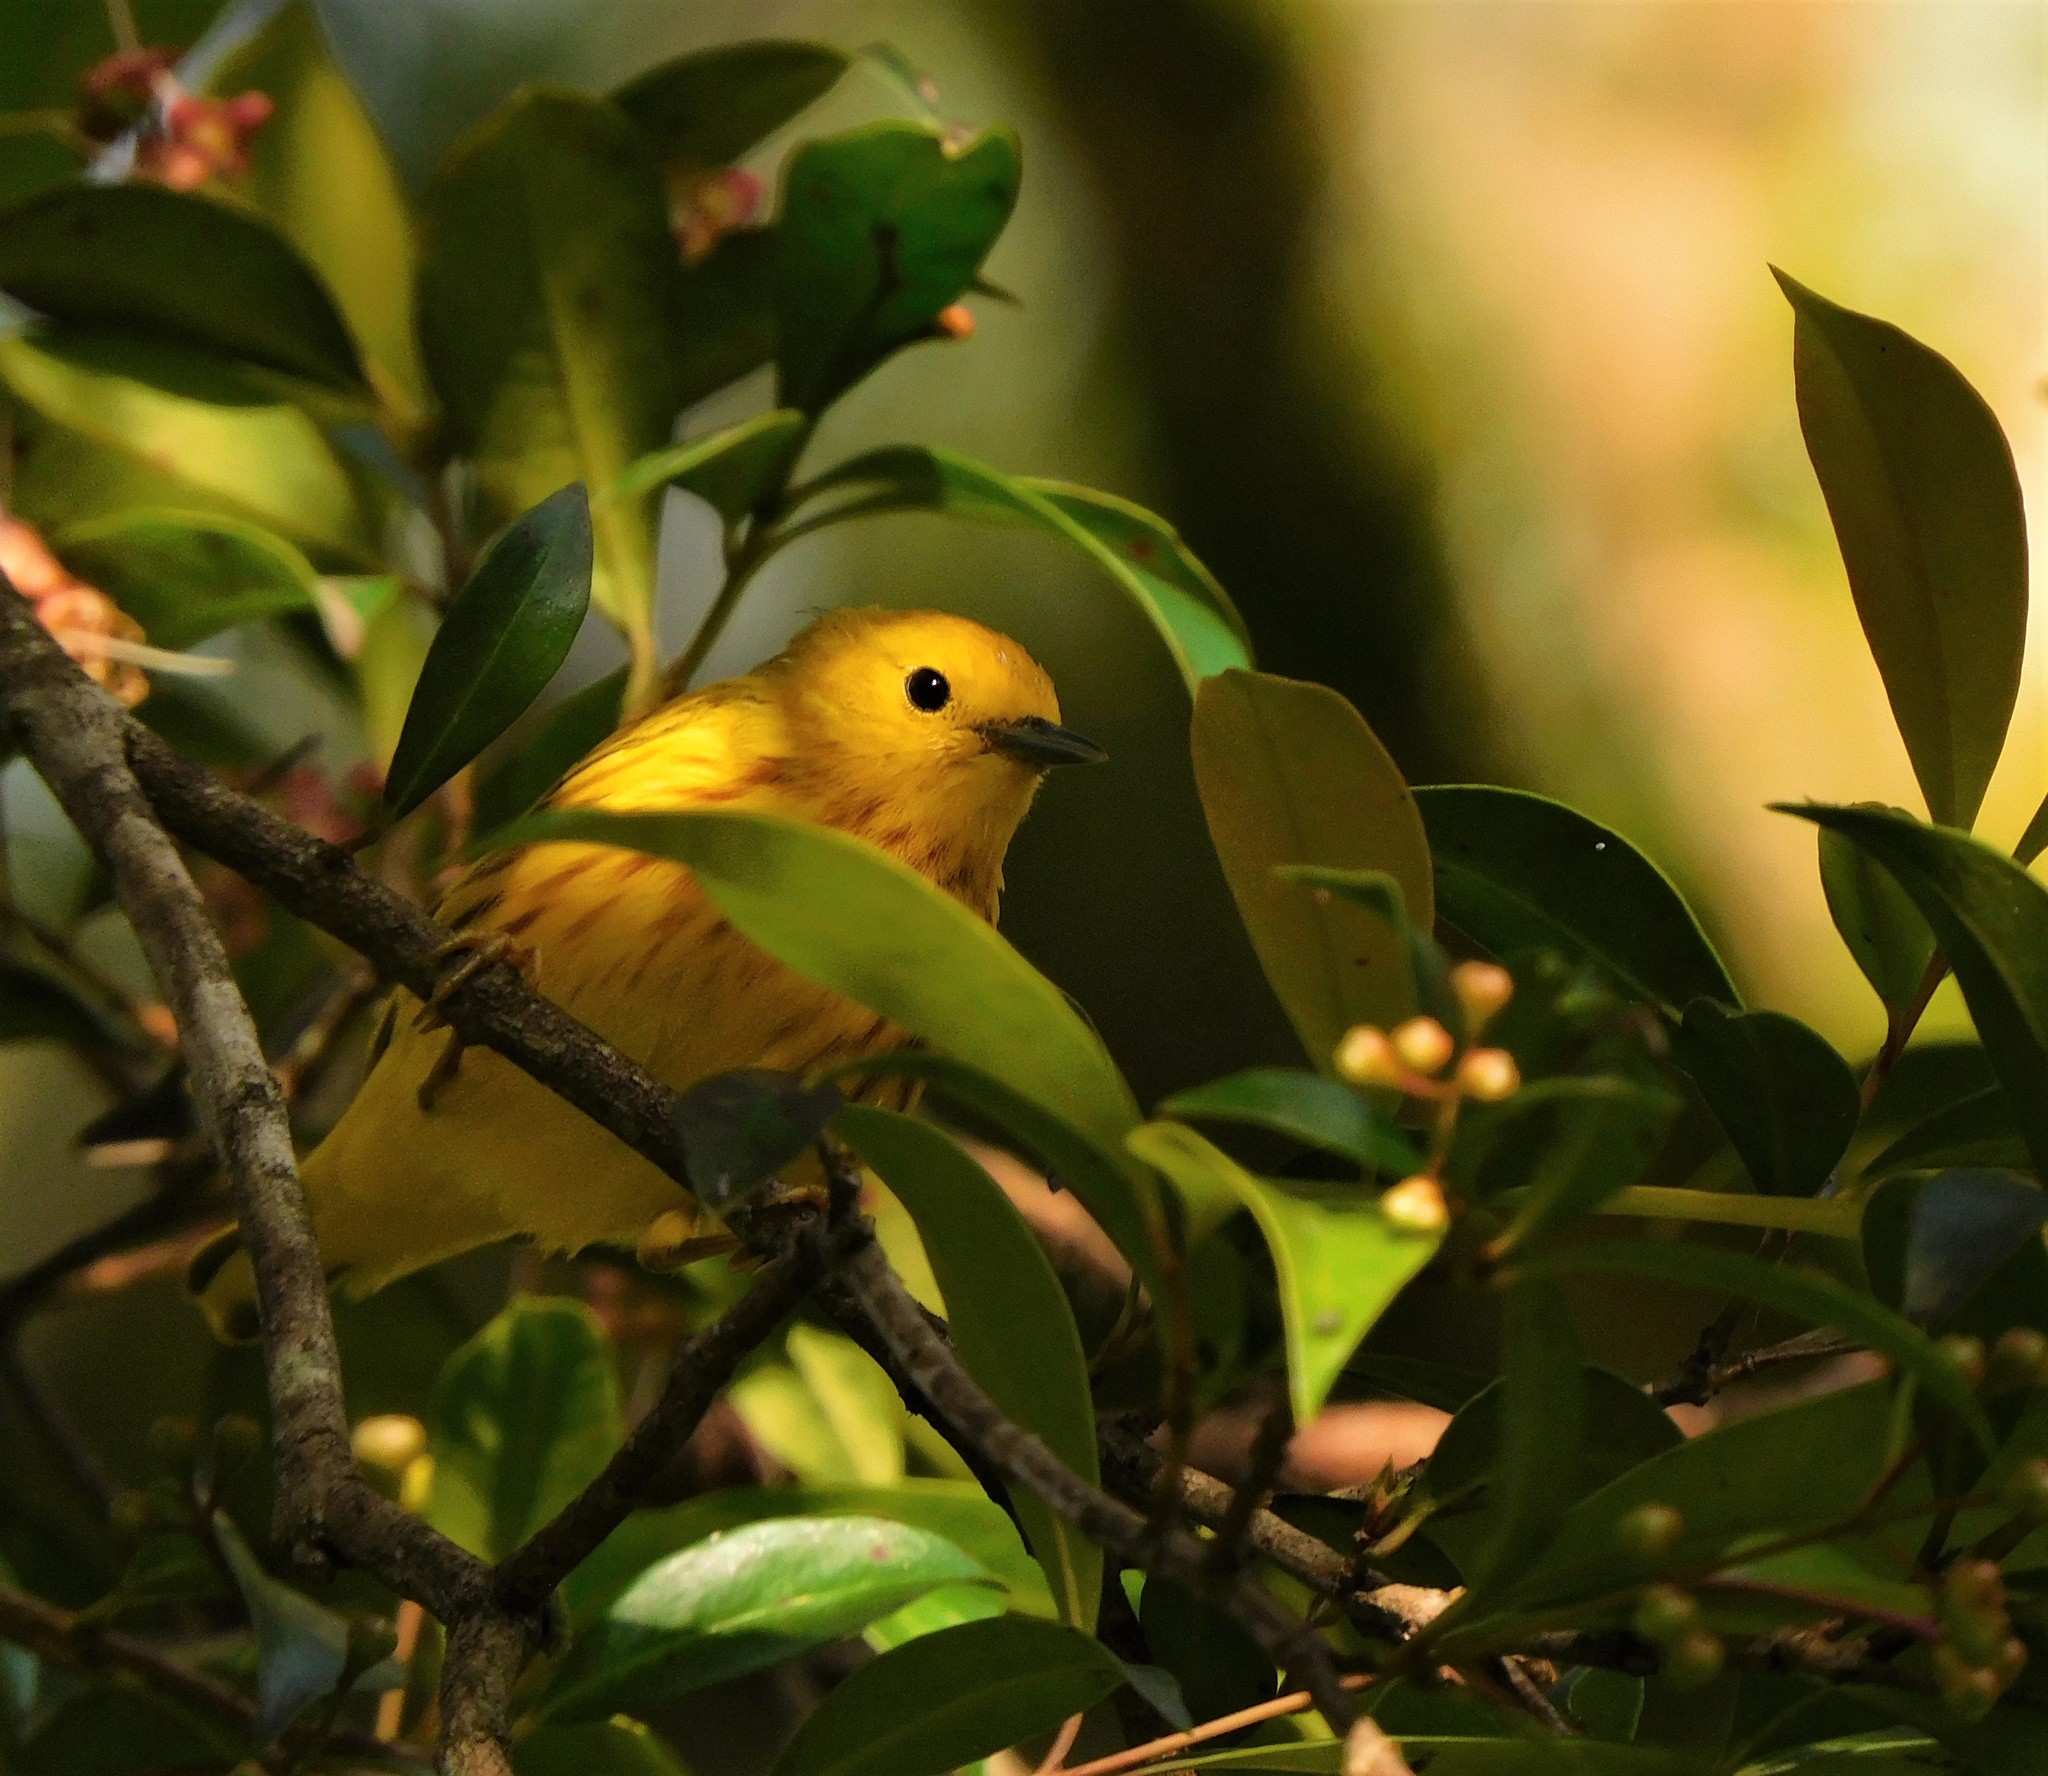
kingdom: Animalia
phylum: Chordata
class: Aves
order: Passeriformes
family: Parulidae
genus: Setophaga
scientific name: Setophaga petechia
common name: Yellow warbler
